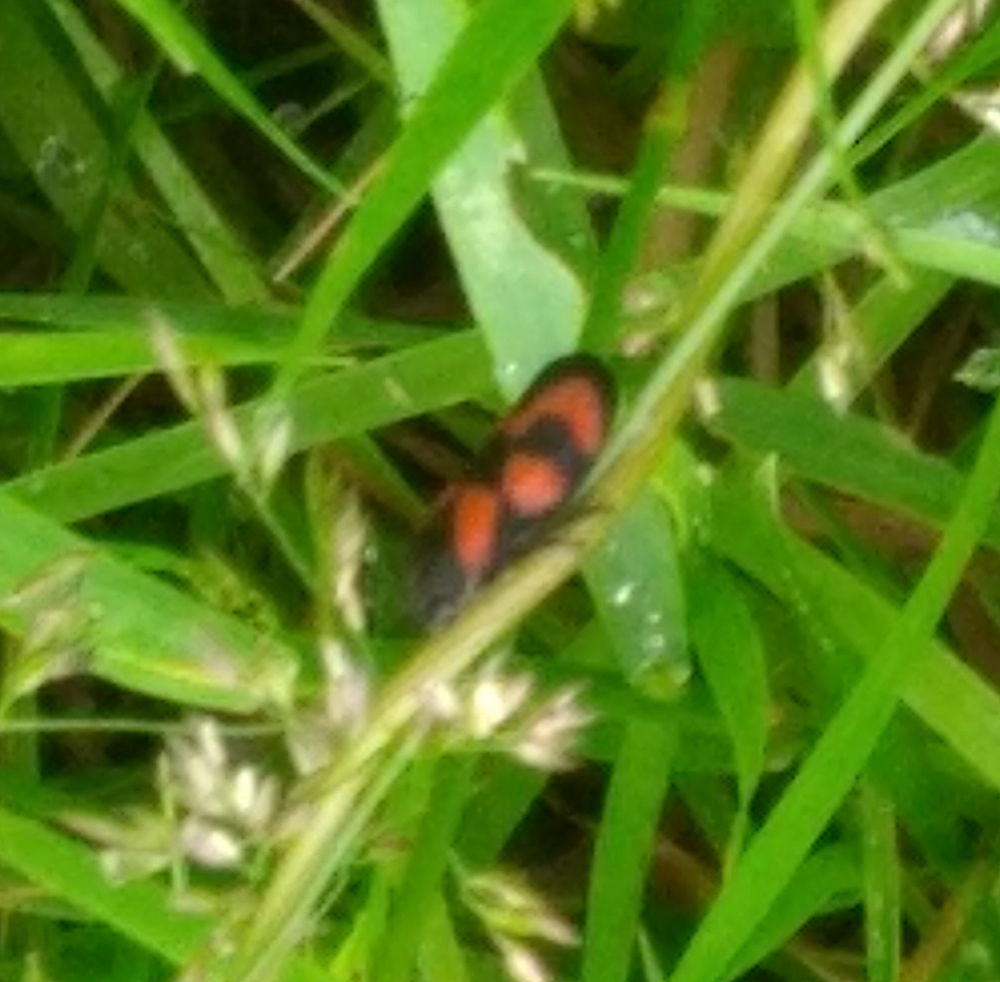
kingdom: Animalia
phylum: Arthropoda
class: Insecta
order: Hemiptera
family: Cercopidae
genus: Cercopis
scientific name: Cercopis vulnerata
